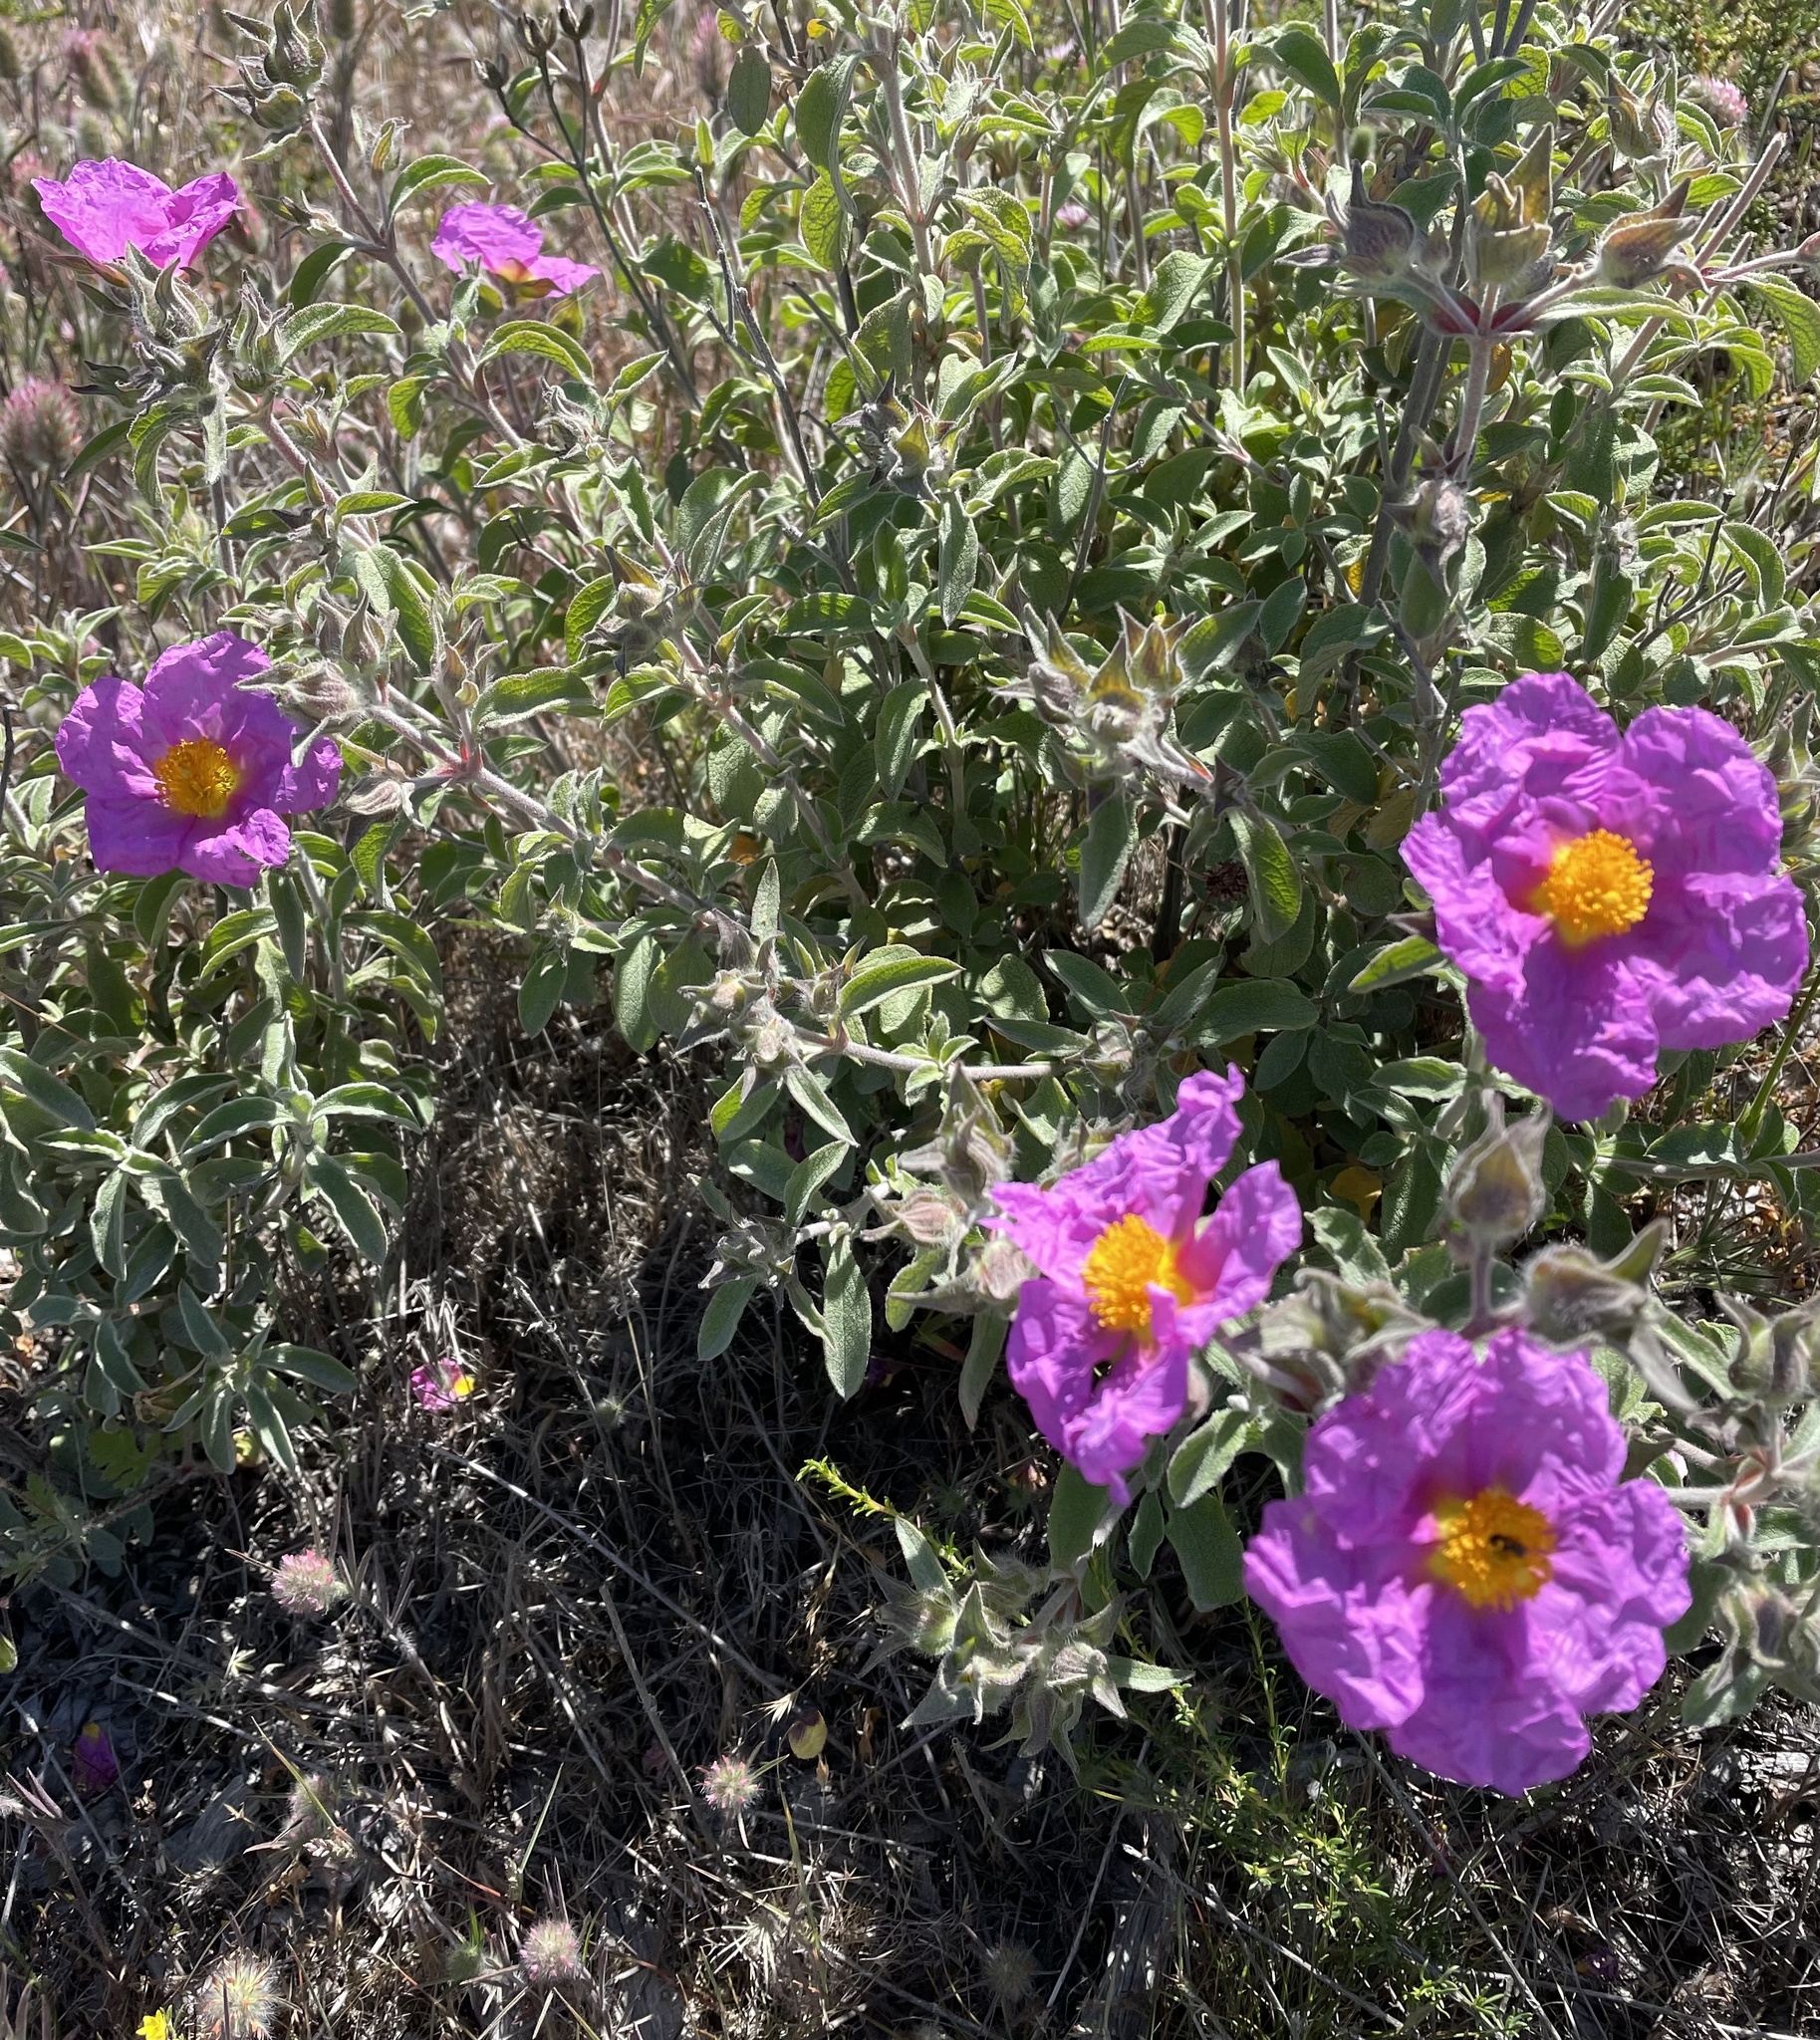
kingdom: Plantae
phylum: Tracheophyta
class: Magnoliopsida
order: Malvales
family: Cistaceae
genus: Cistus
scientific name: Cistus creticus
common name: Cretan rockrose
